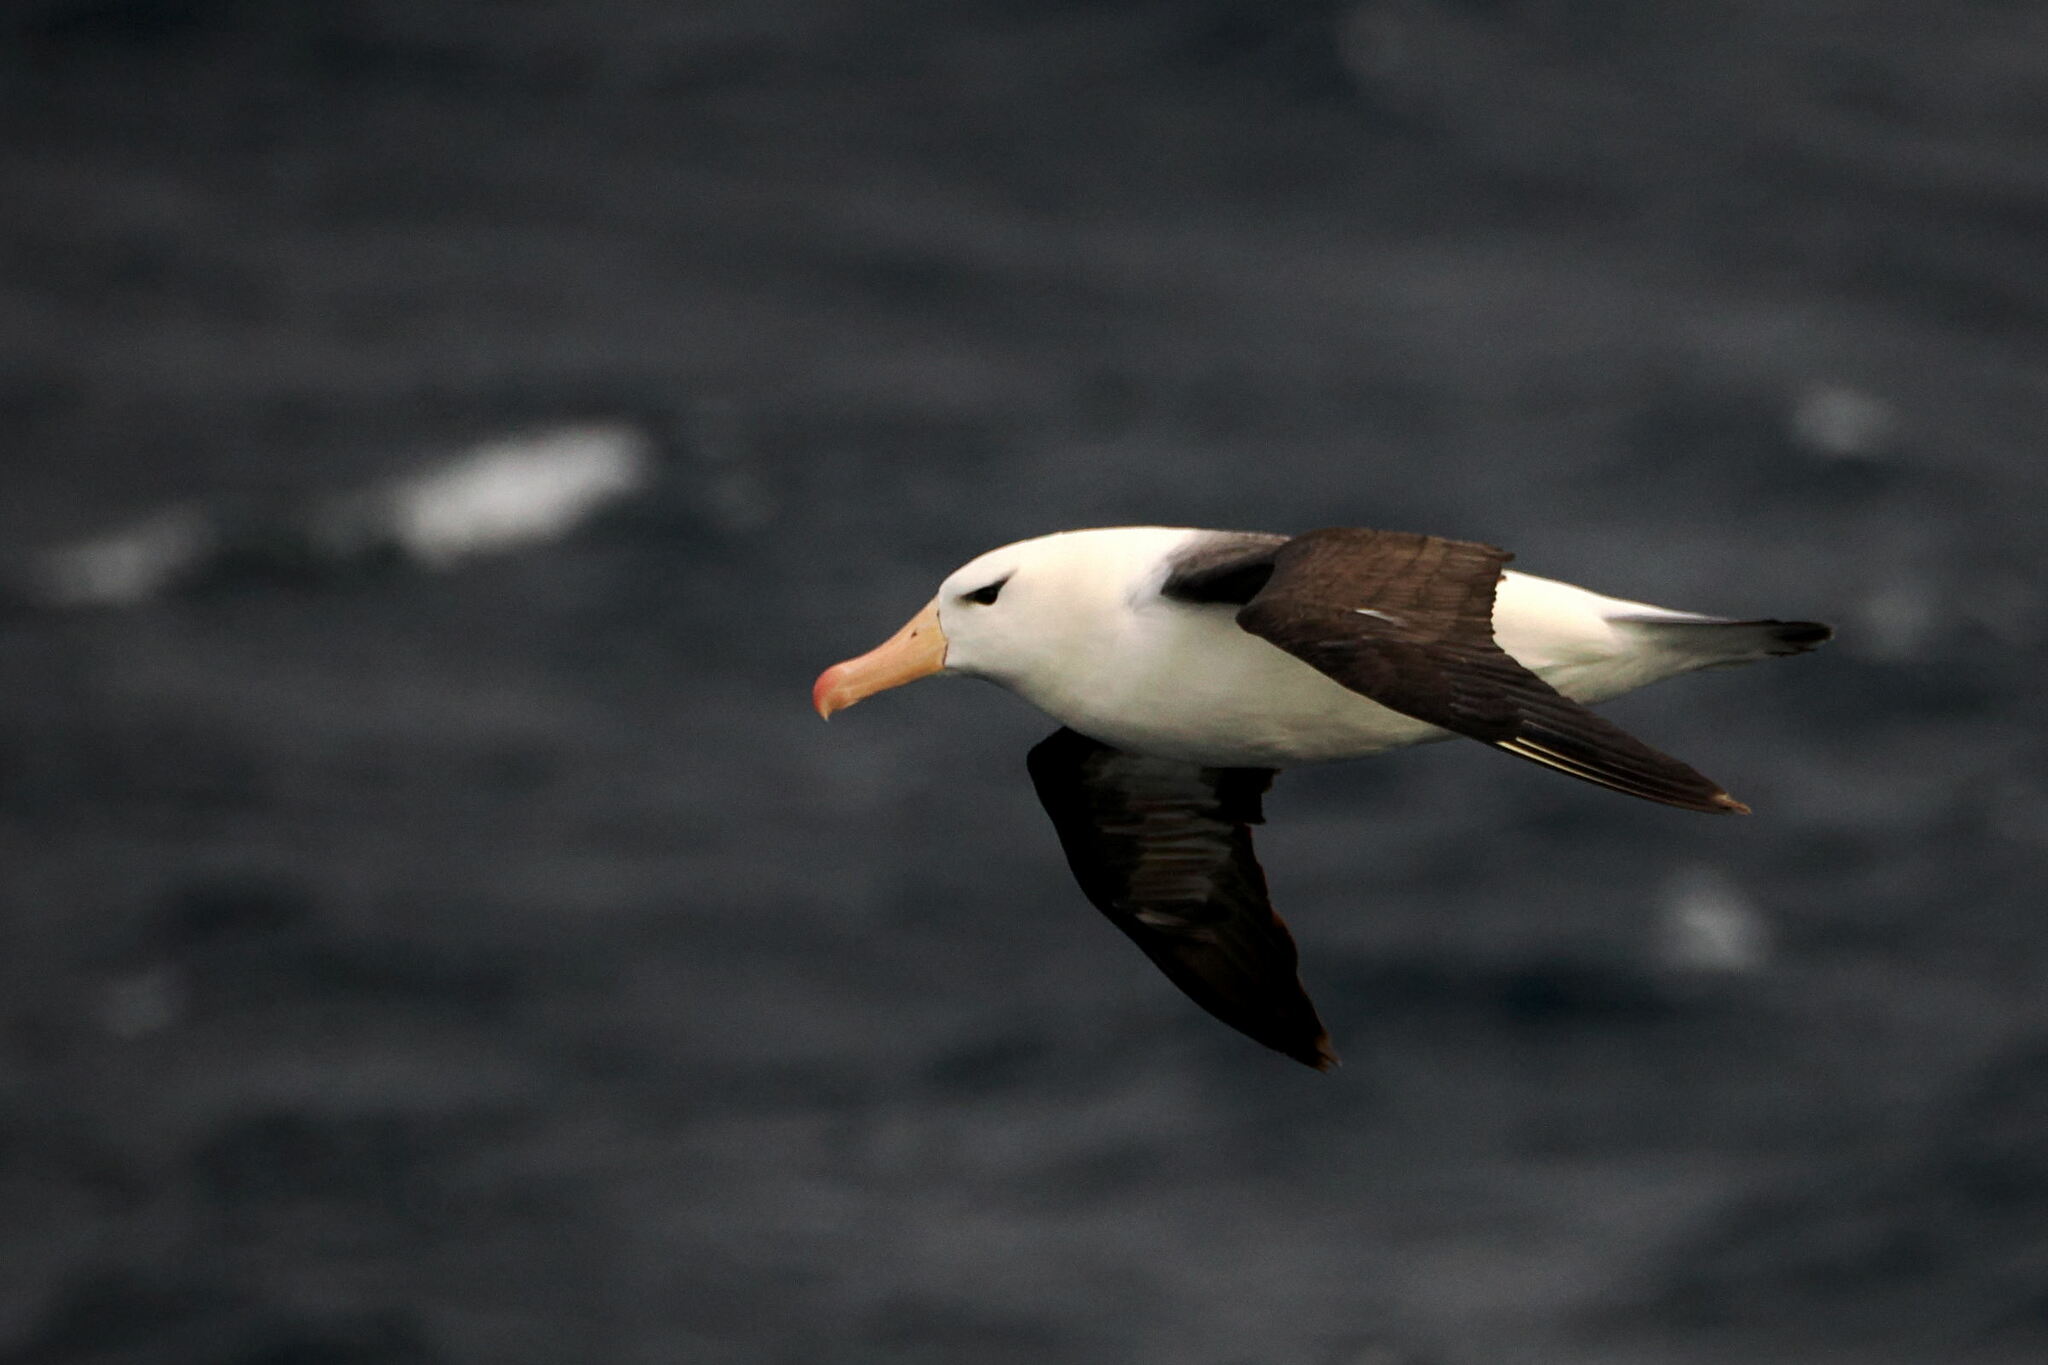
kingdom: Animalia
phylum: Chordata
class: Aves
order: Procellariiformes
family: Diomedeidae
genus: Thalassarche
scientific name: Thalassarche melanophris
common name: Black-browed albatross
